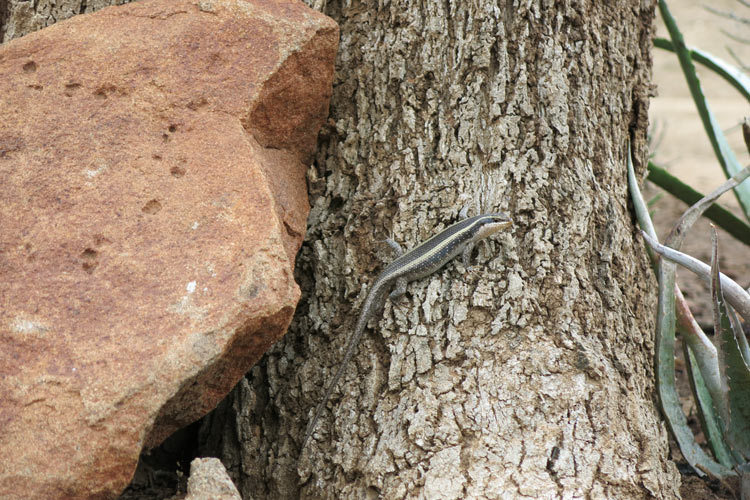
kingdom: Animalia
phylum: Chordata
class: Squamata
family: Scincidae
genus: Trachylepis
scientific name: Trachylepis striata
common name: African striped mabuya
